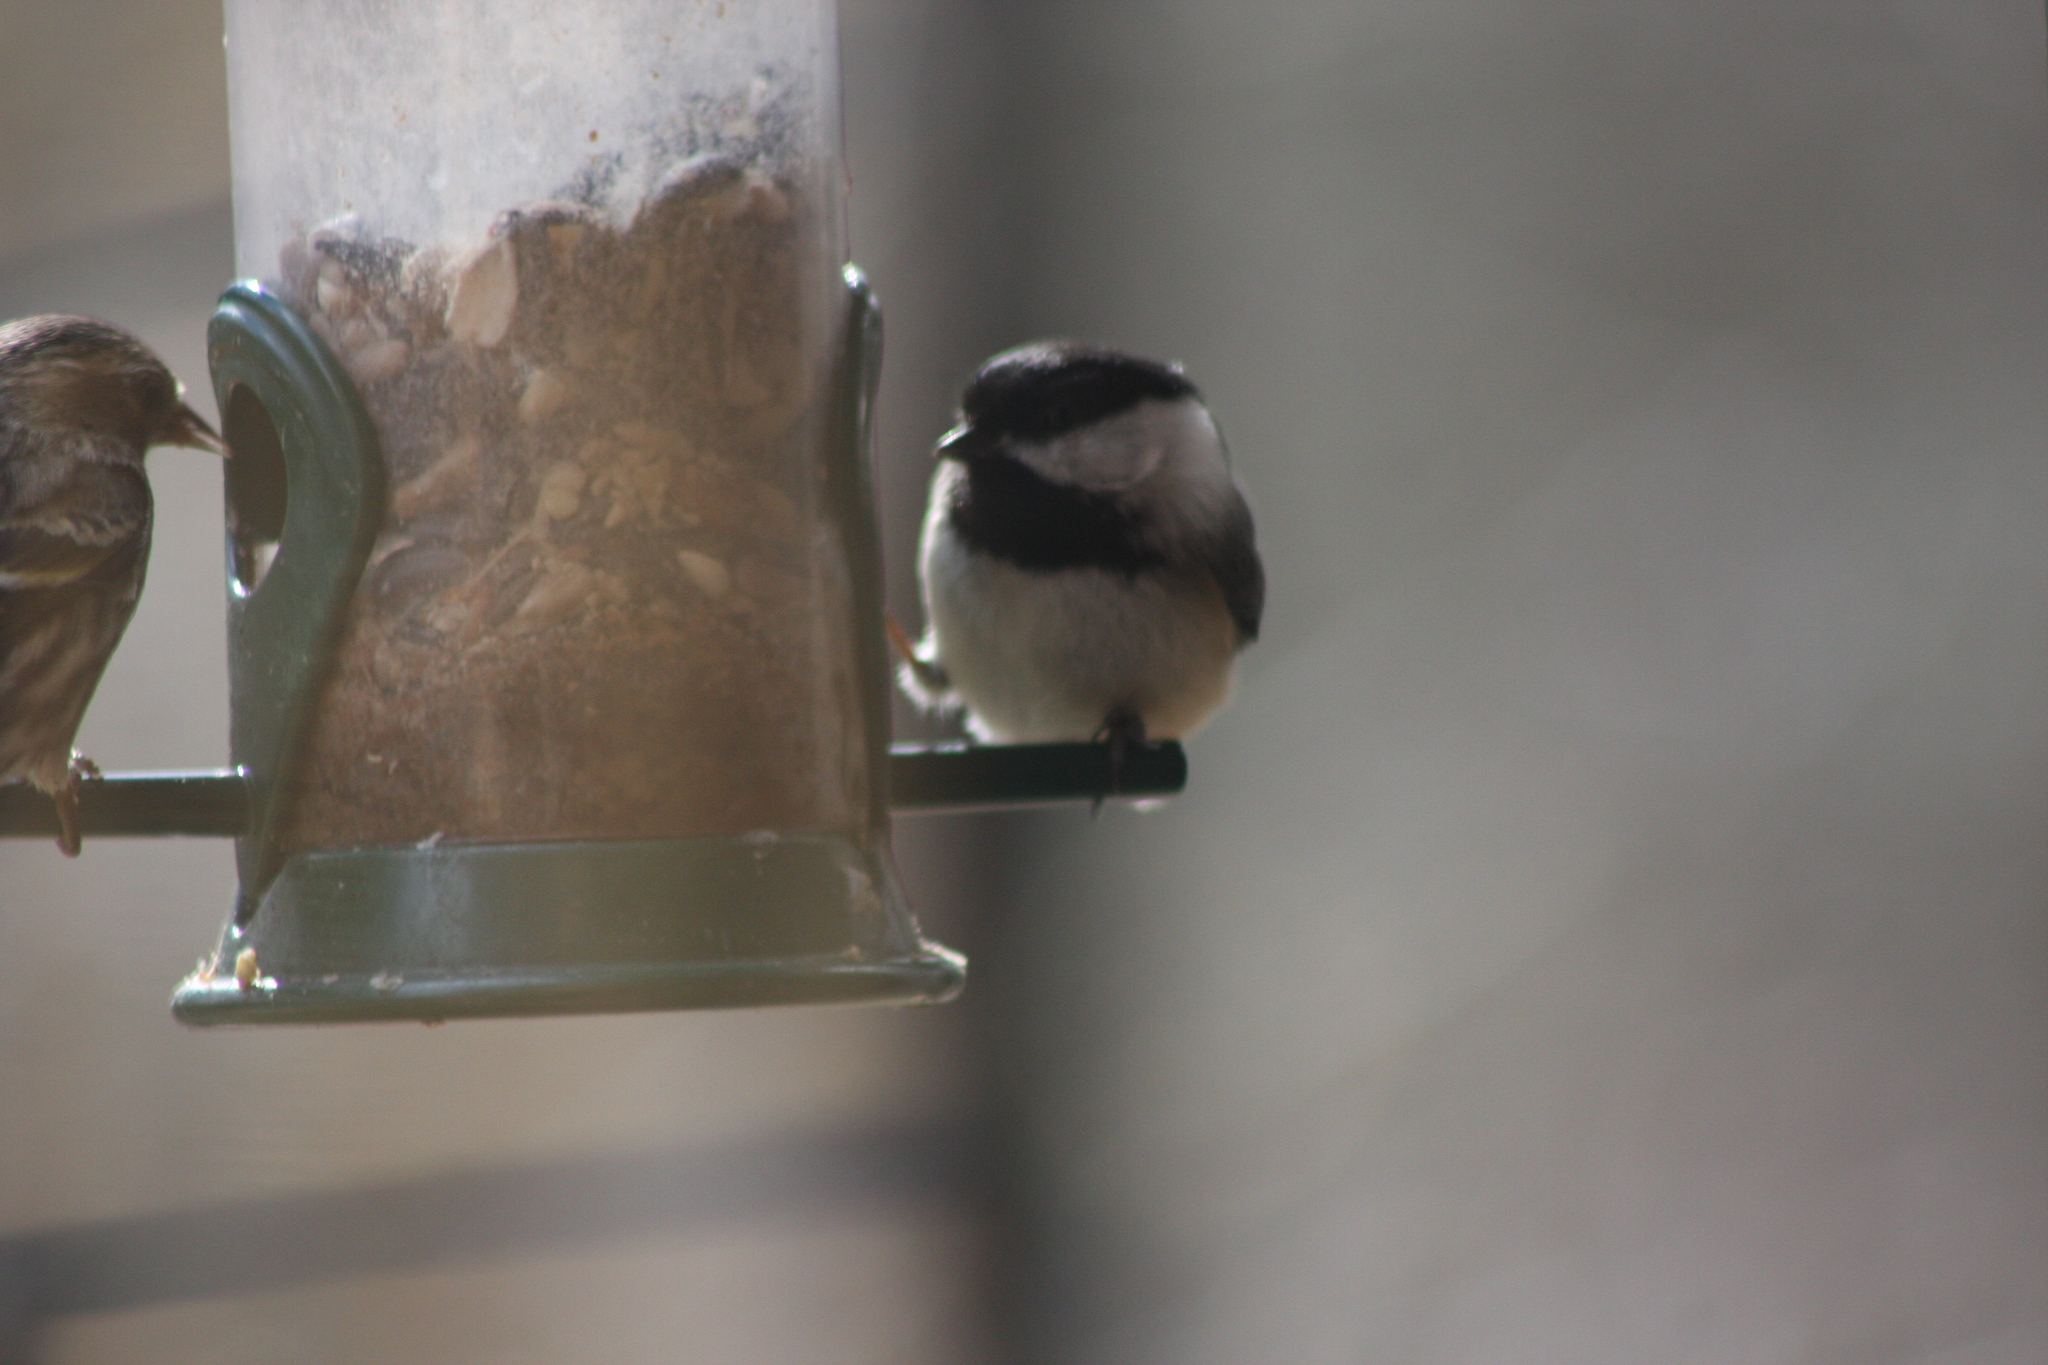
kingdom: Animalia
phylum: Chordata
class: Aves
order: Passeriformes
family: Paridae
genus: Poecile
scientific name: Poecile atricapillus
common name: Black-capped chickadee
